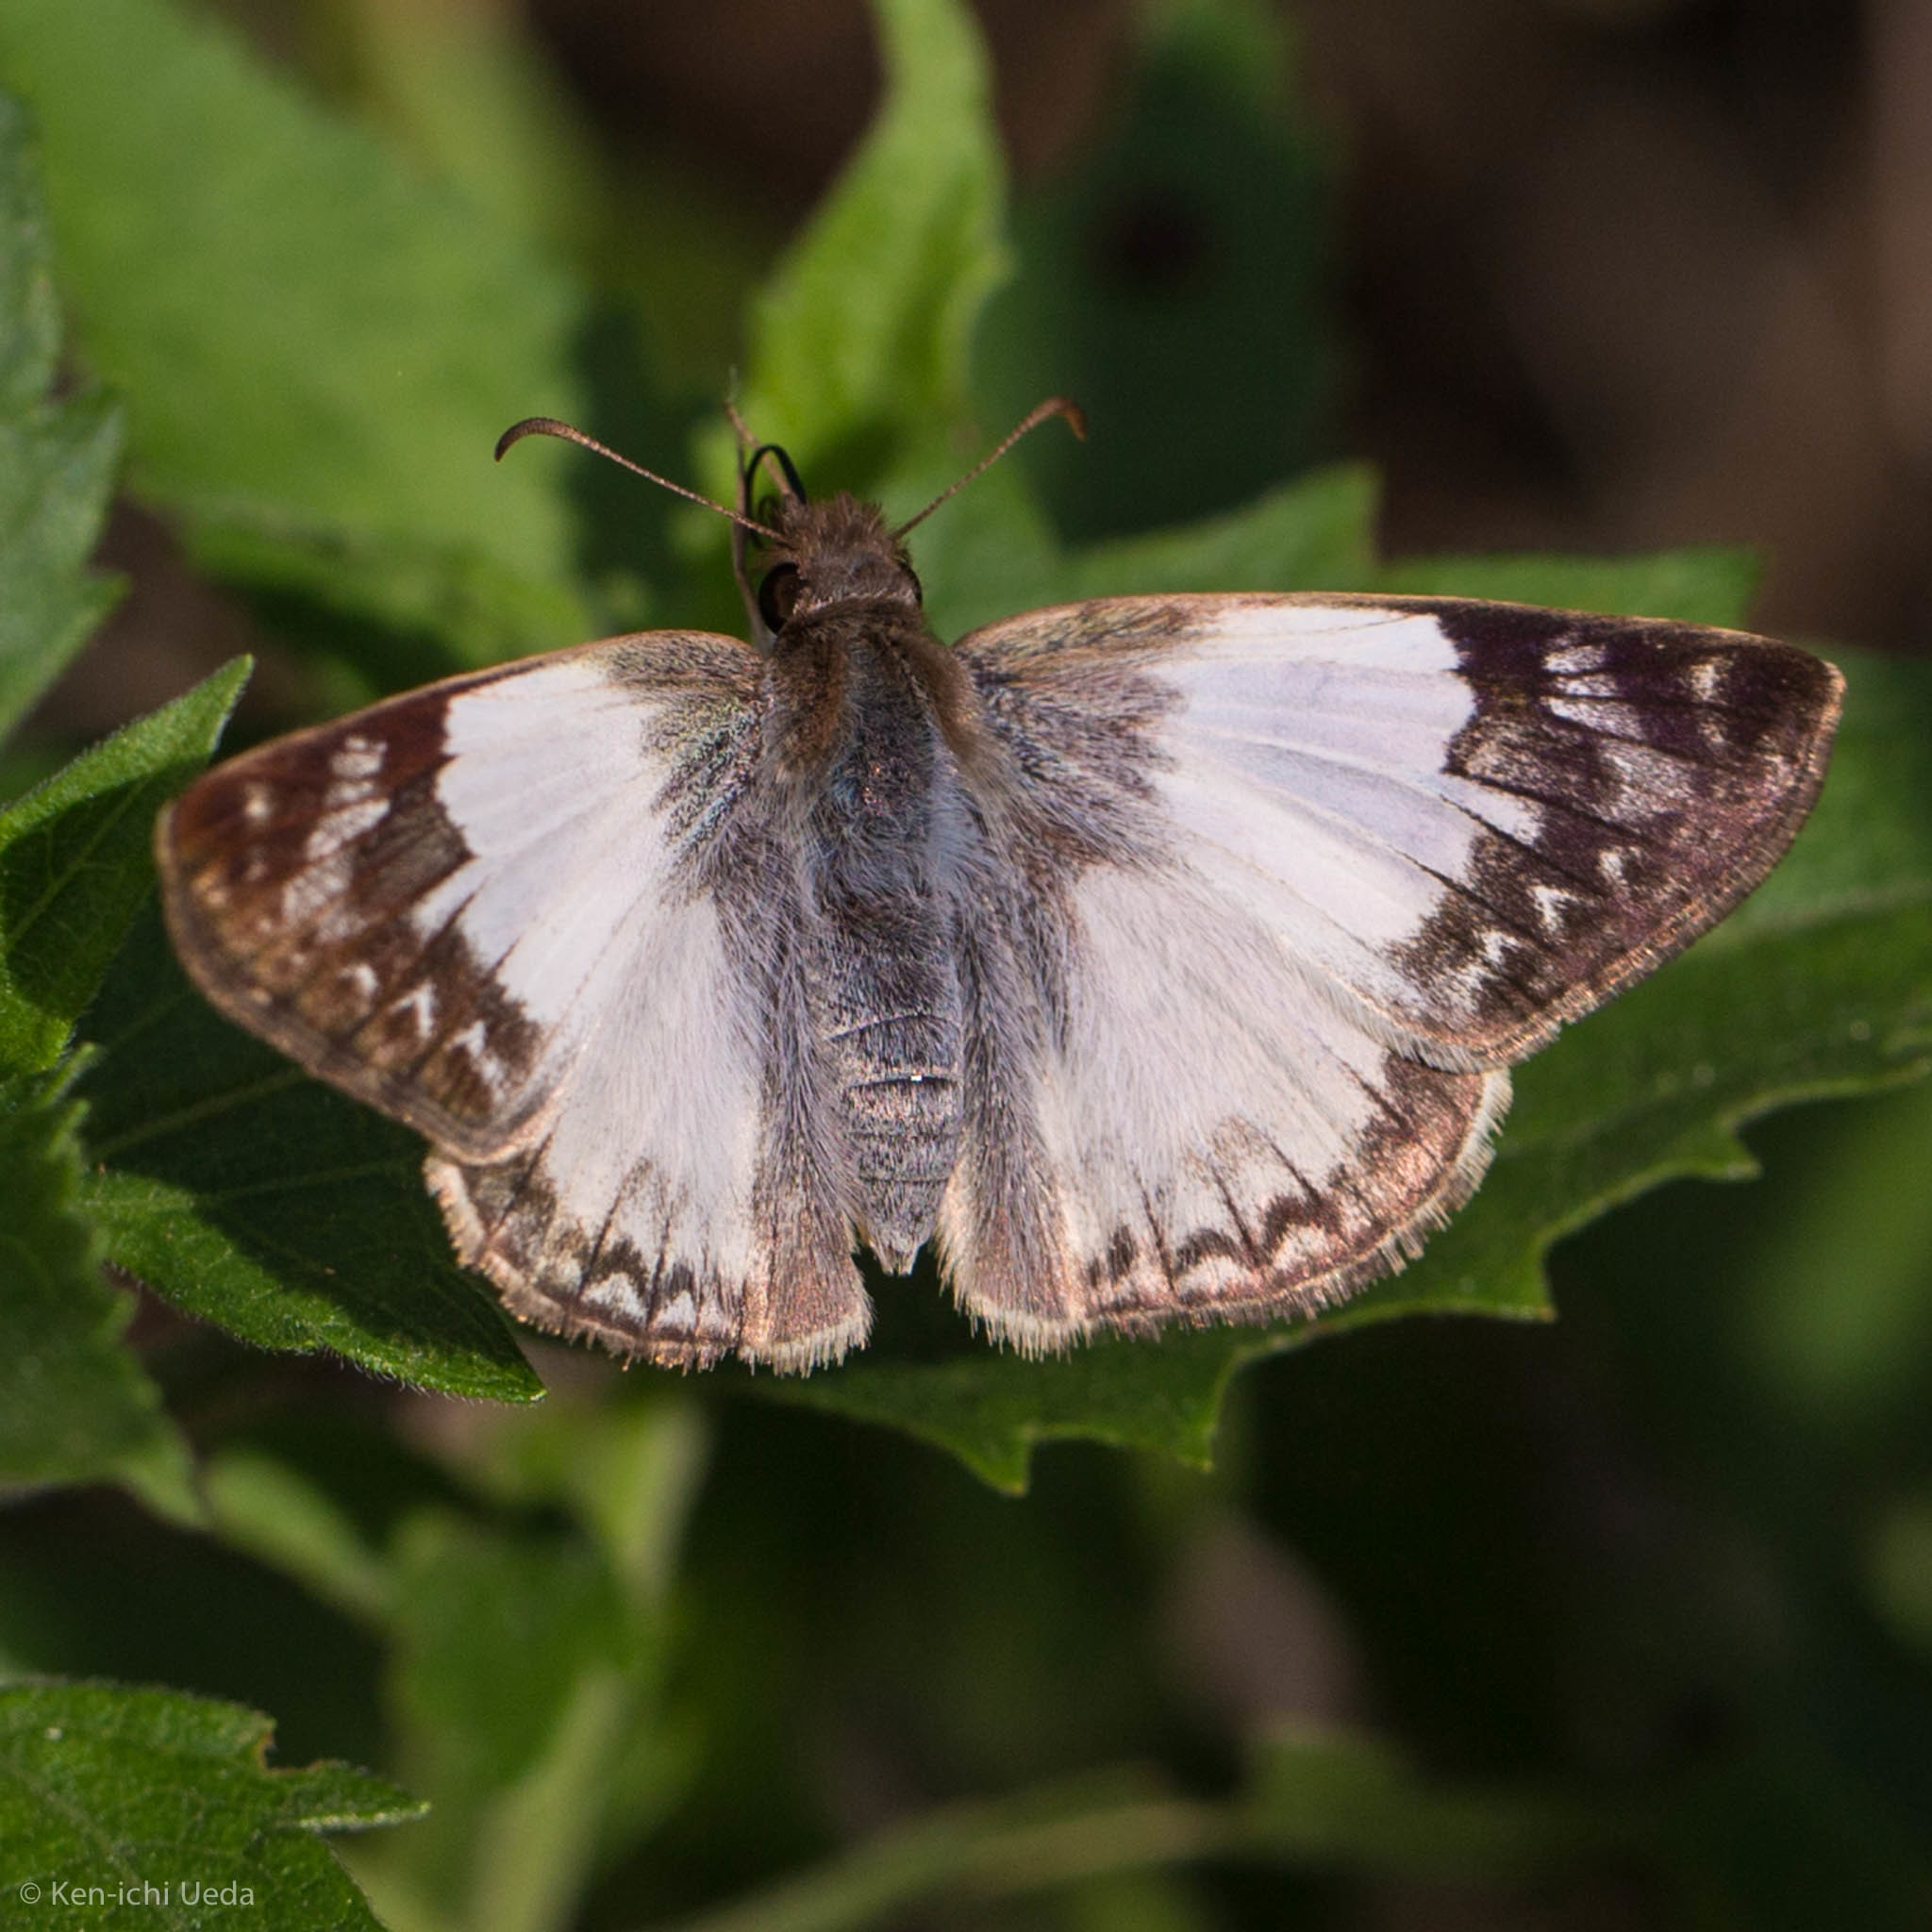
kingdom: Animalia
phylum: Arthropoda
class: Insecta
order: Lepidoptera
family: Hesperiidae
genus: Heliopetes
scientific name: Heliopetes laviana
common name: Laviana white-skipper
